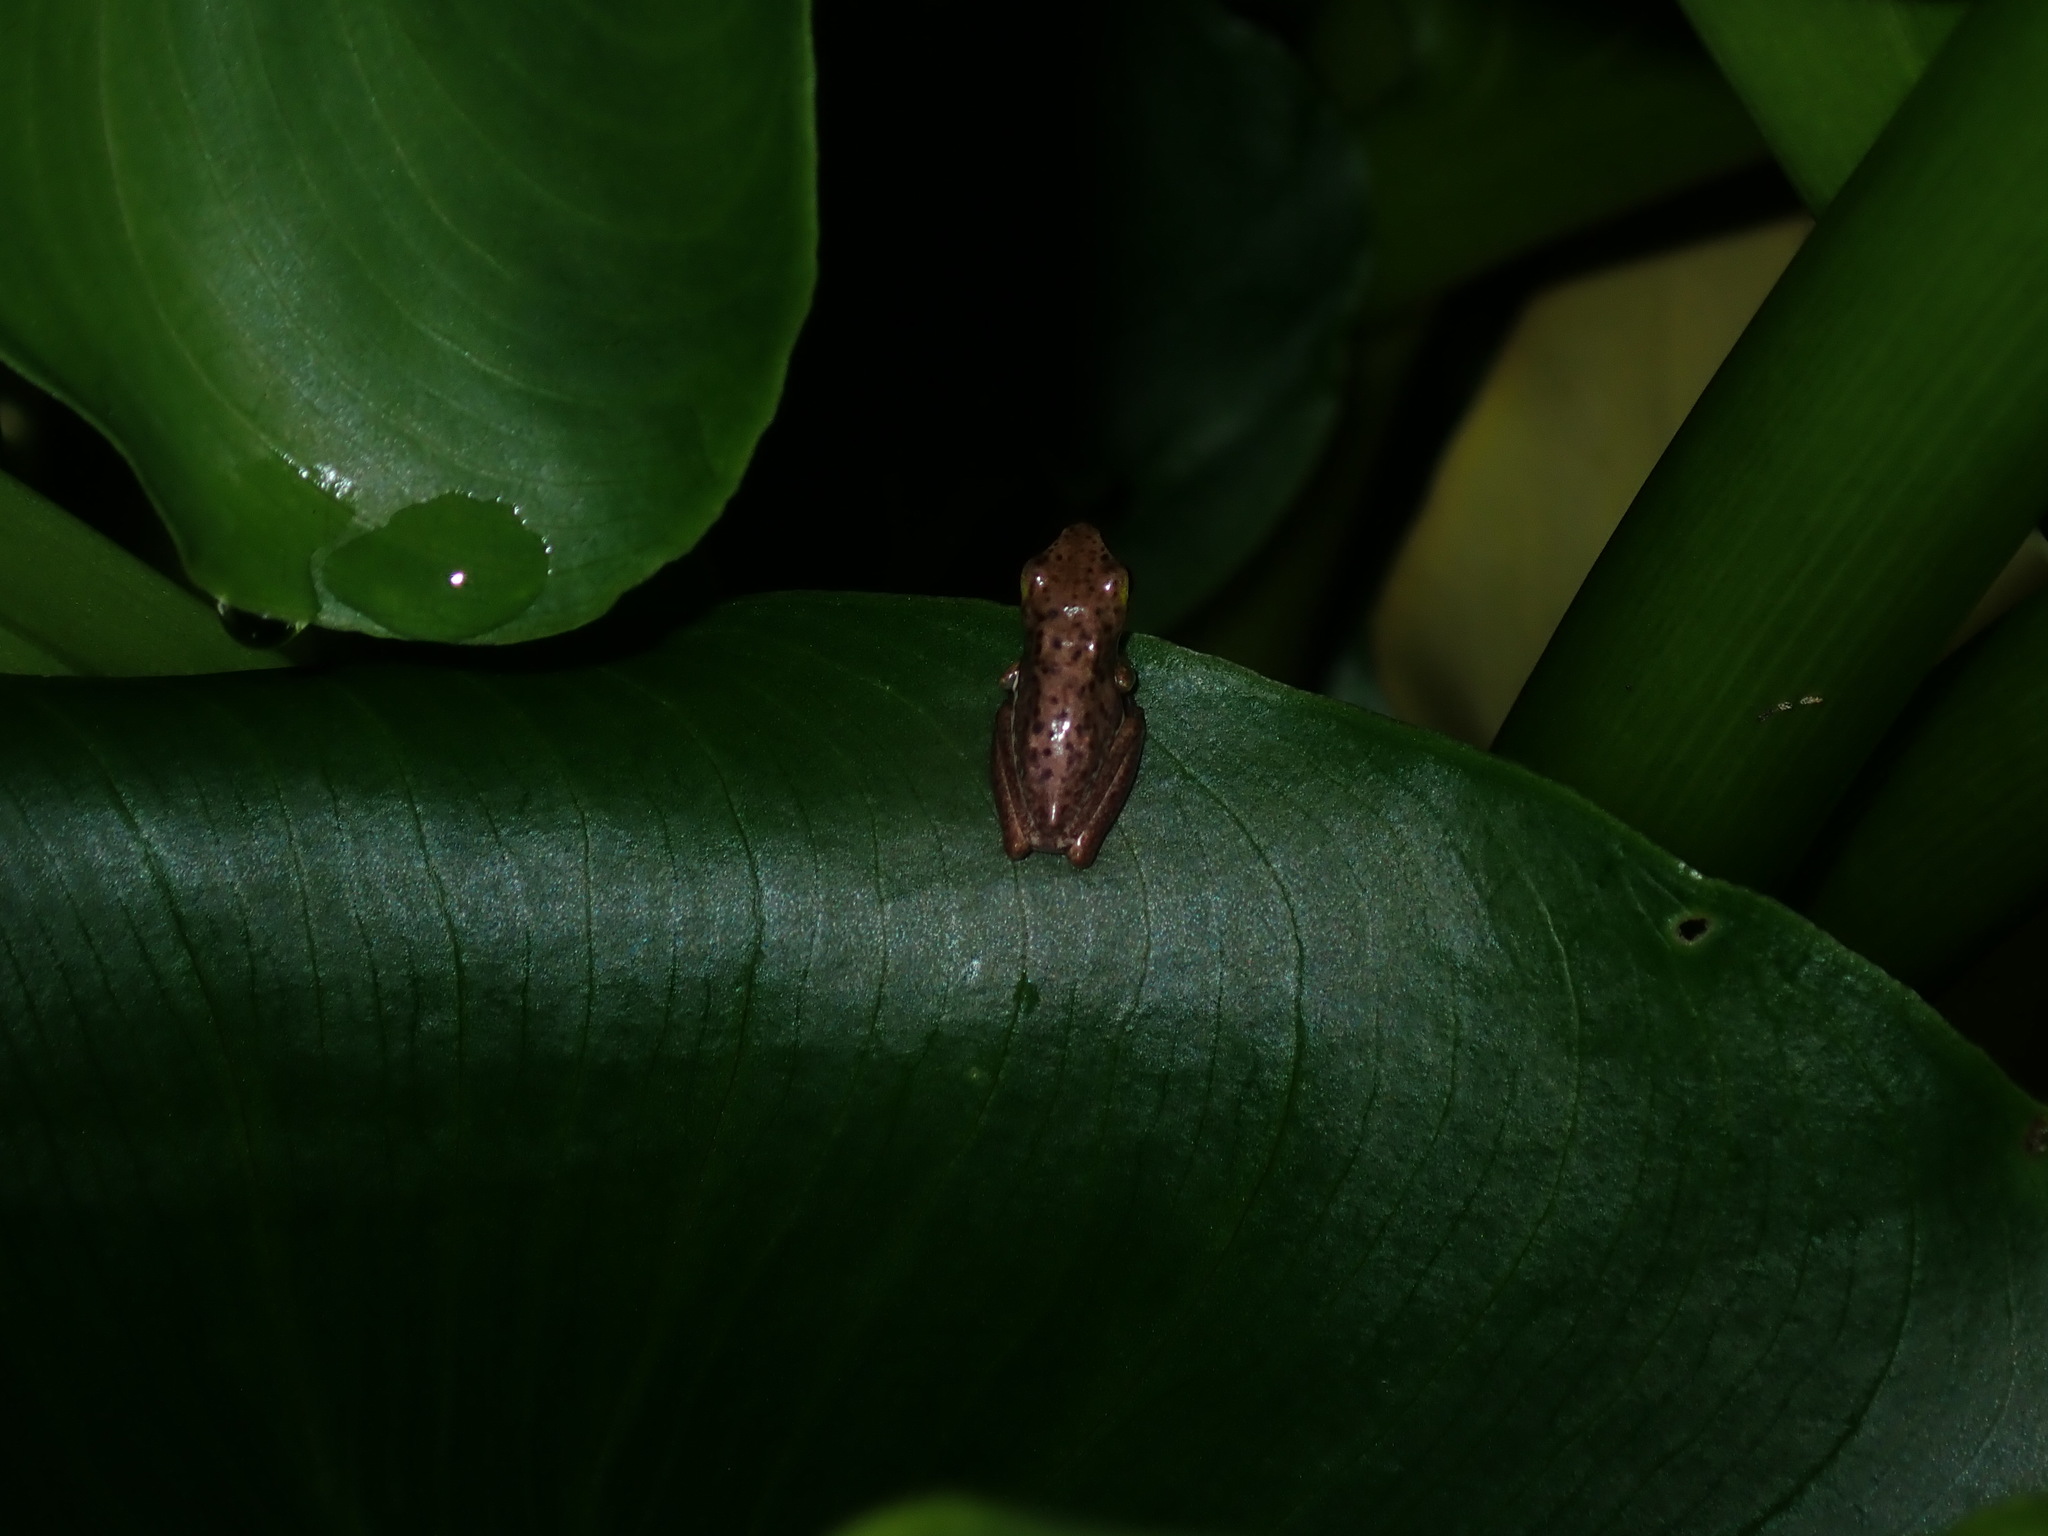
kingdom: Animalia
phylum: Chordata
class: Amphibia
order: Anura
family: Pelodryadidae
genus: Litoria
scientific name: Litoria fallax
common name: Eastern dwarf treefrog
